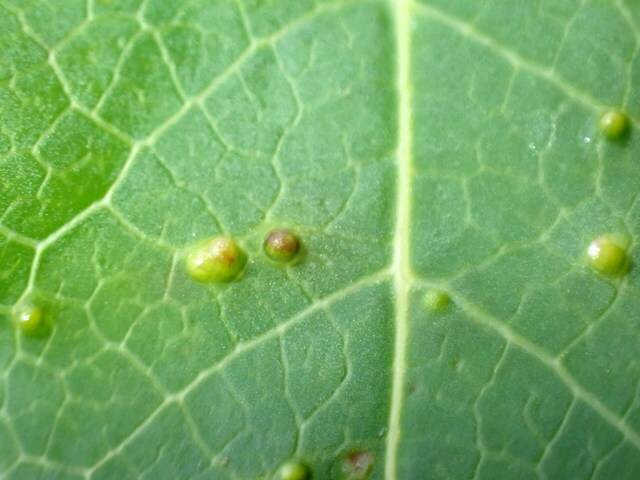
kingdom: Animalia
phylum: Arthropoda
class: Insecta
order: Hemiptera
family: Diaspididae
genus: Diaspidiotus
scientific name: Diaspidiotus liquidambaris
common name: Sweet gum scale
